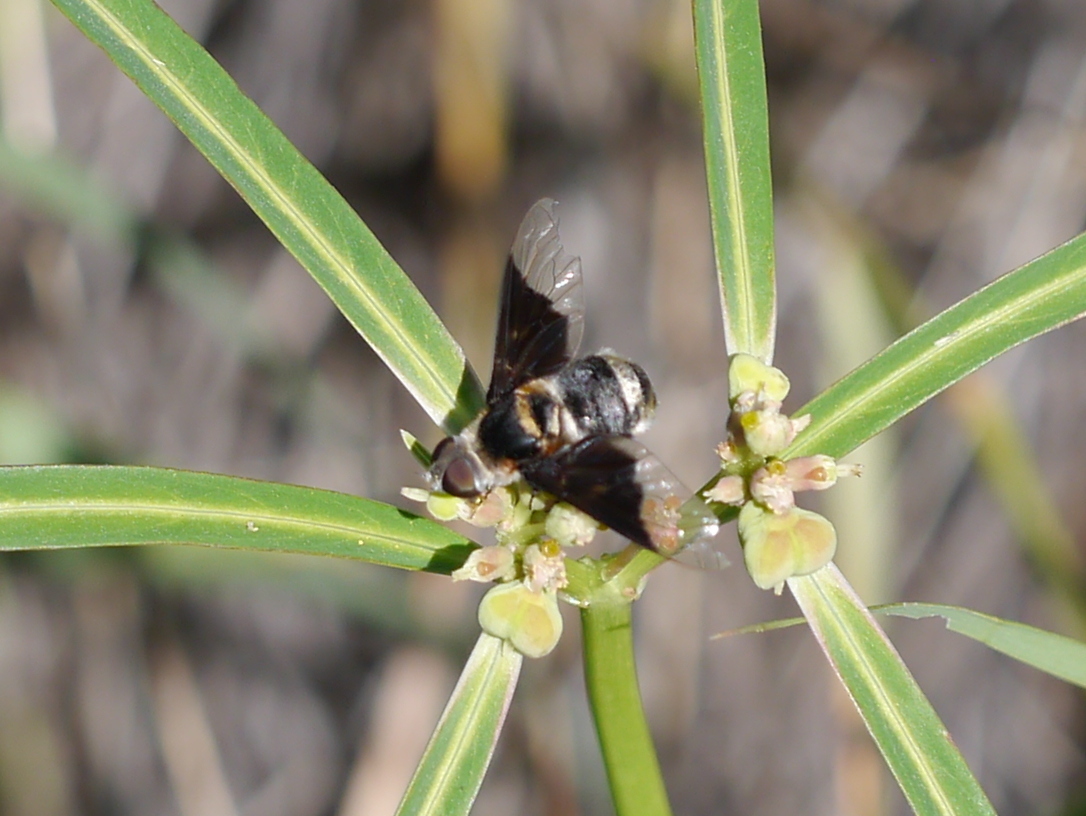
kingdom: Animalia
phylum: Arthropoda
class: Insecta
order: Diptera
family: Bombyliidae
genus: Ins
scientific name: Ins celeris
